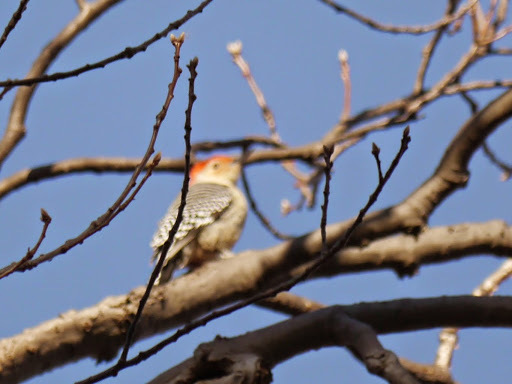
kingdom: Animalia
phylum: Chordata
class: Aves
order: Piciformes
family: Picidae
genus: Melanerpes
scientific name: Melanerpes carolinus
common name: Red-bellied woodpecker
